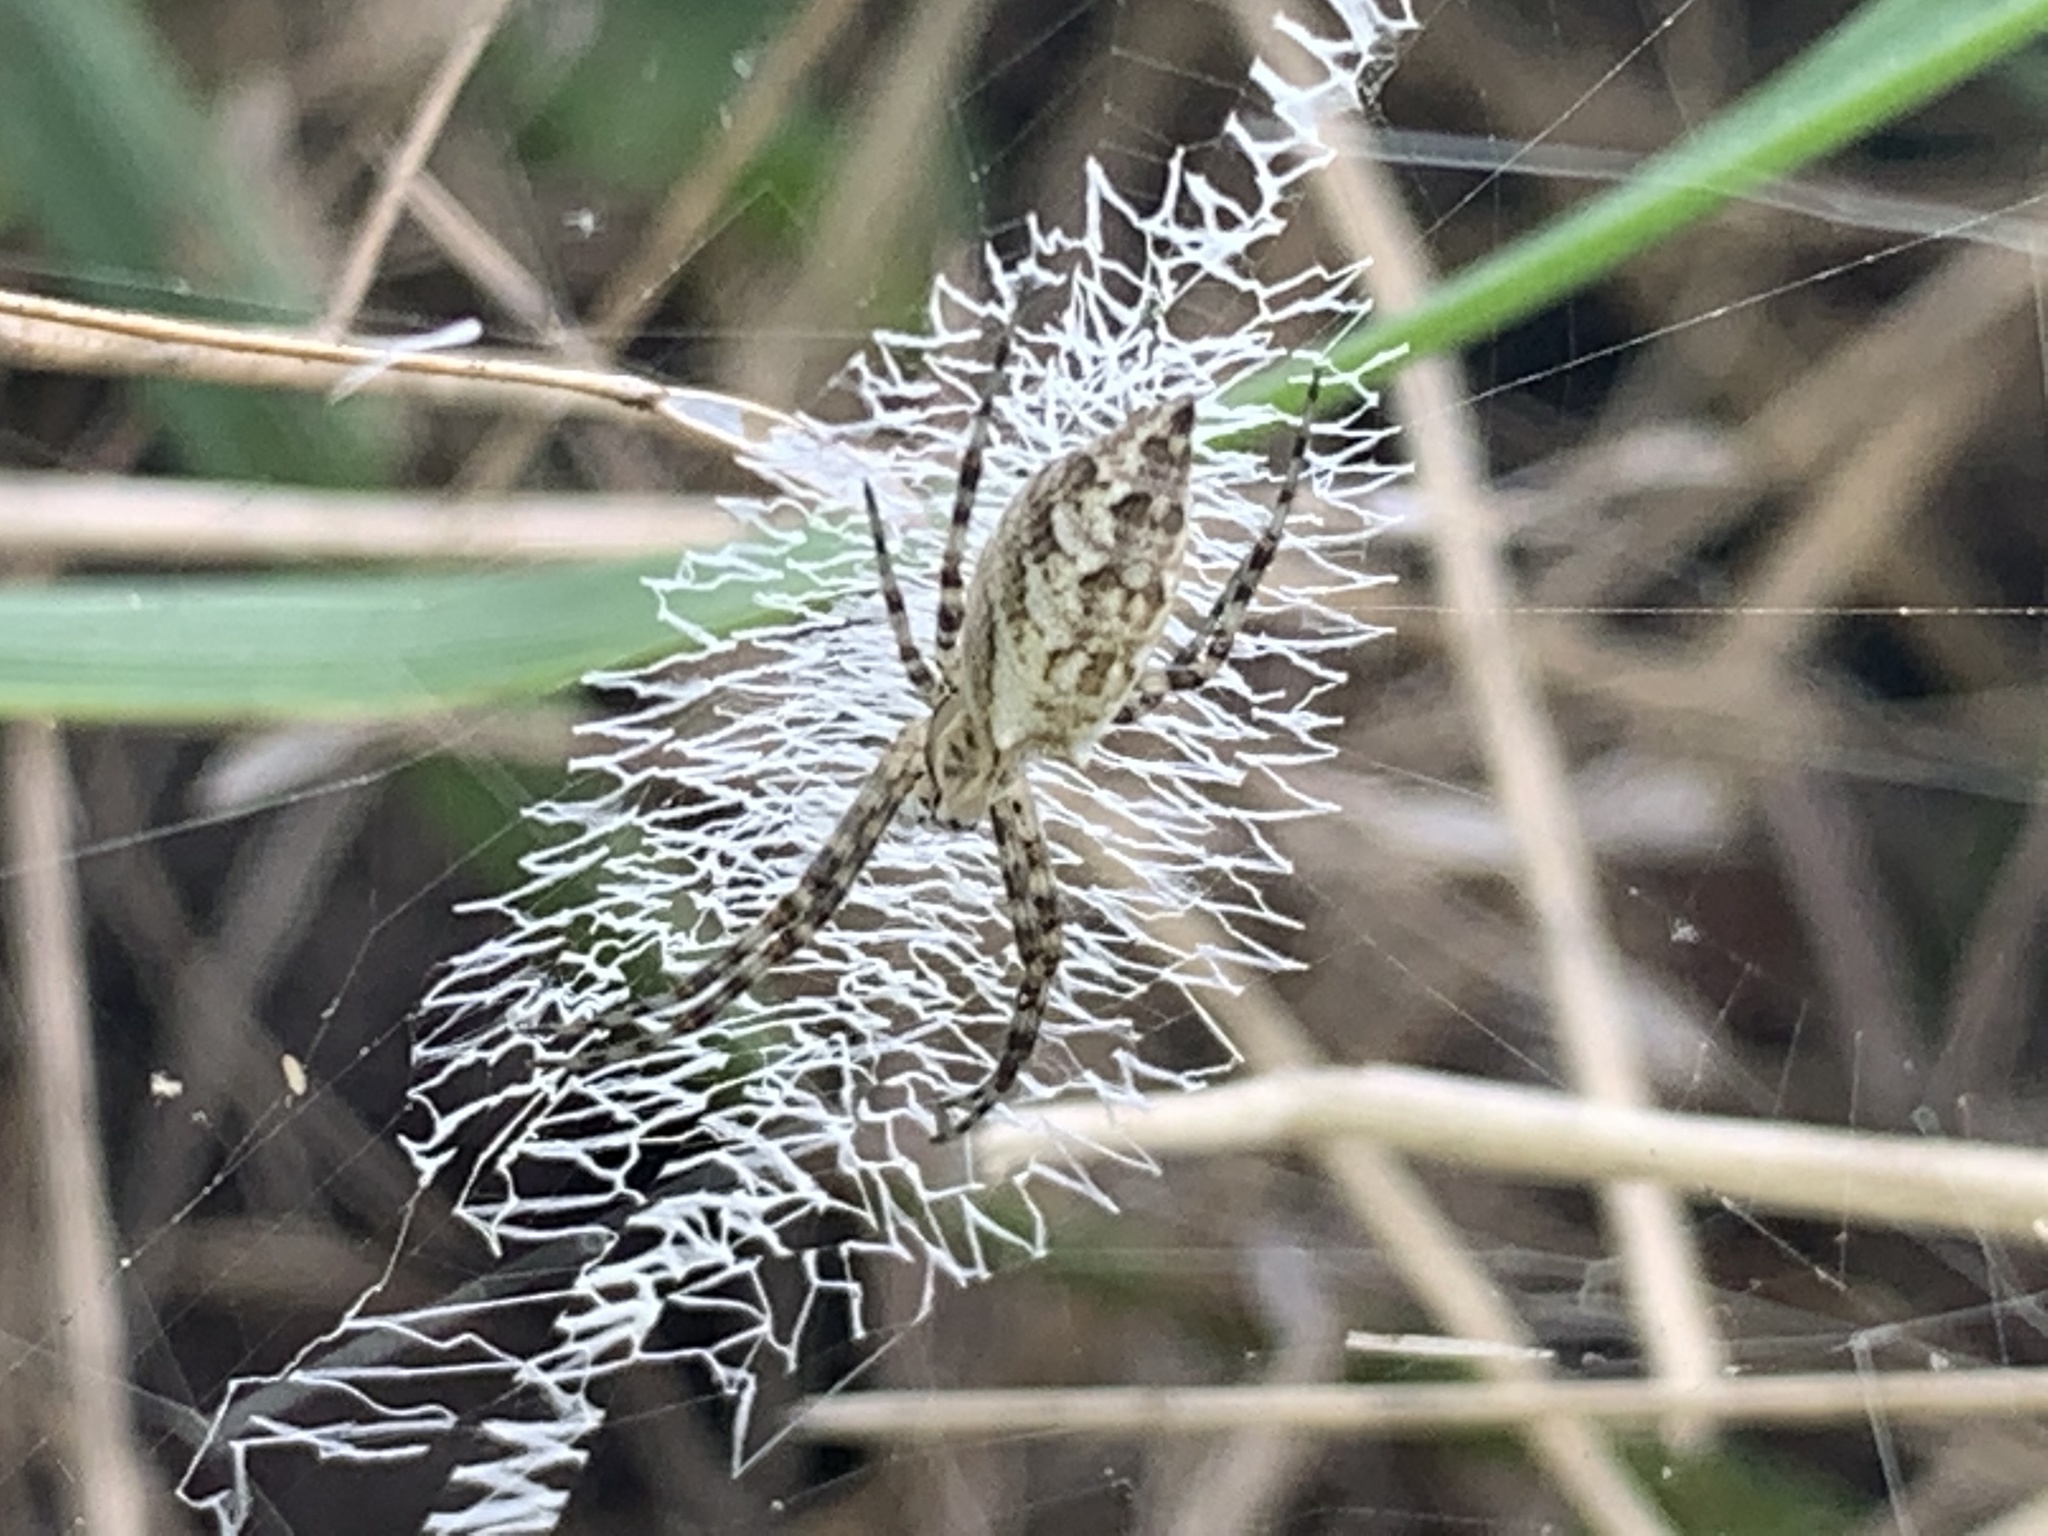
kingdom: Animalia
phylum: Arthropoda
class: Arachnida
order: Araneae
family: Araneidae
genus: Argiope
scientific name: Argiope aurantia
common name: Orb weavers
